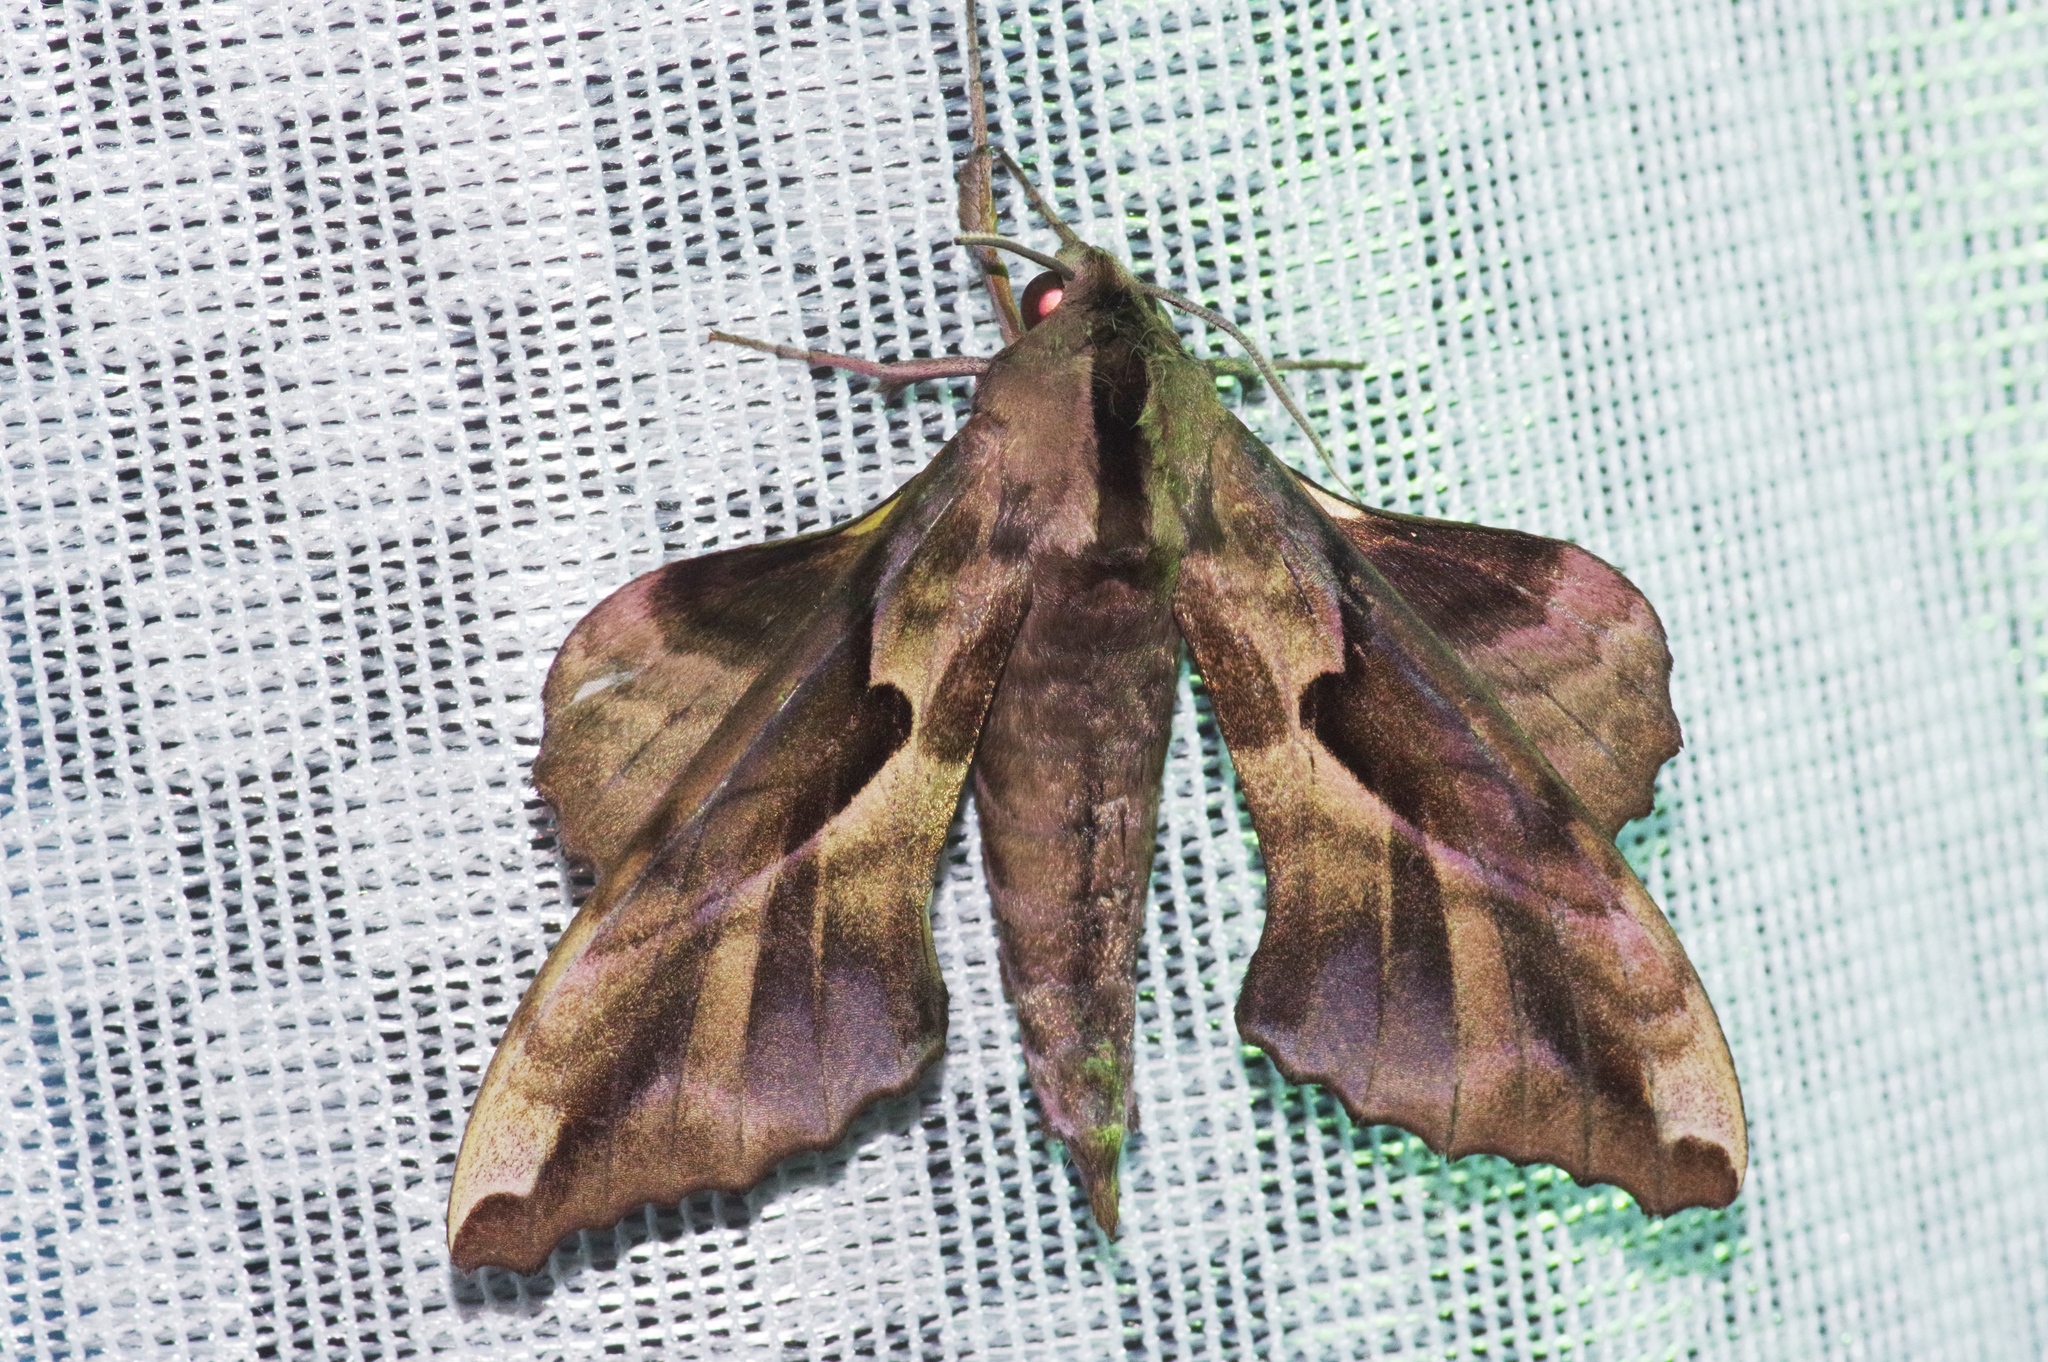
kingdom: Animalia
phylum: Arthropoda
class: Insecta
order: Lepidoptera
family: Sphingidae
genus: Phyllosphingia
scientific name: Phyllosphingia dissimilis
